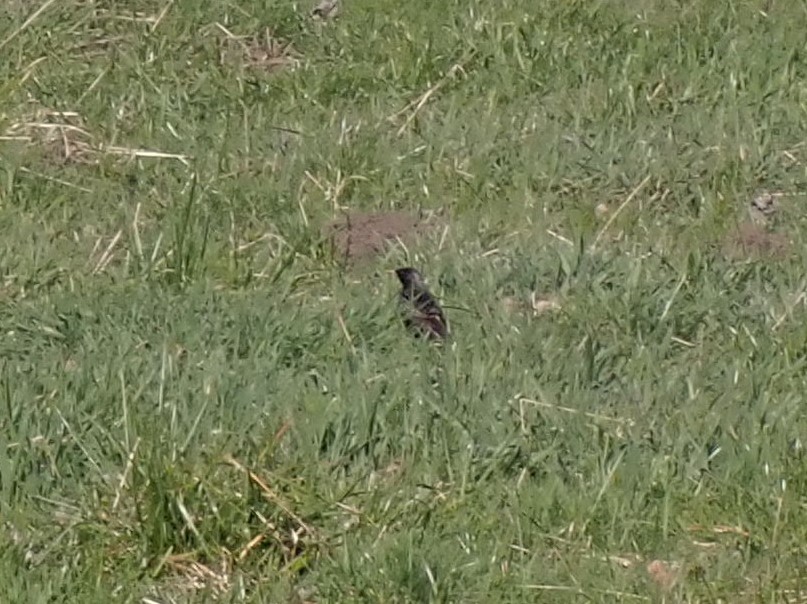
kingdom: Animalia
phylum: Chordata
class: Aves
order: Passeriformes
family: Sturnidae
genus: Sturnus
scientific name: Sturnus vulgaris
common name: Common starling
